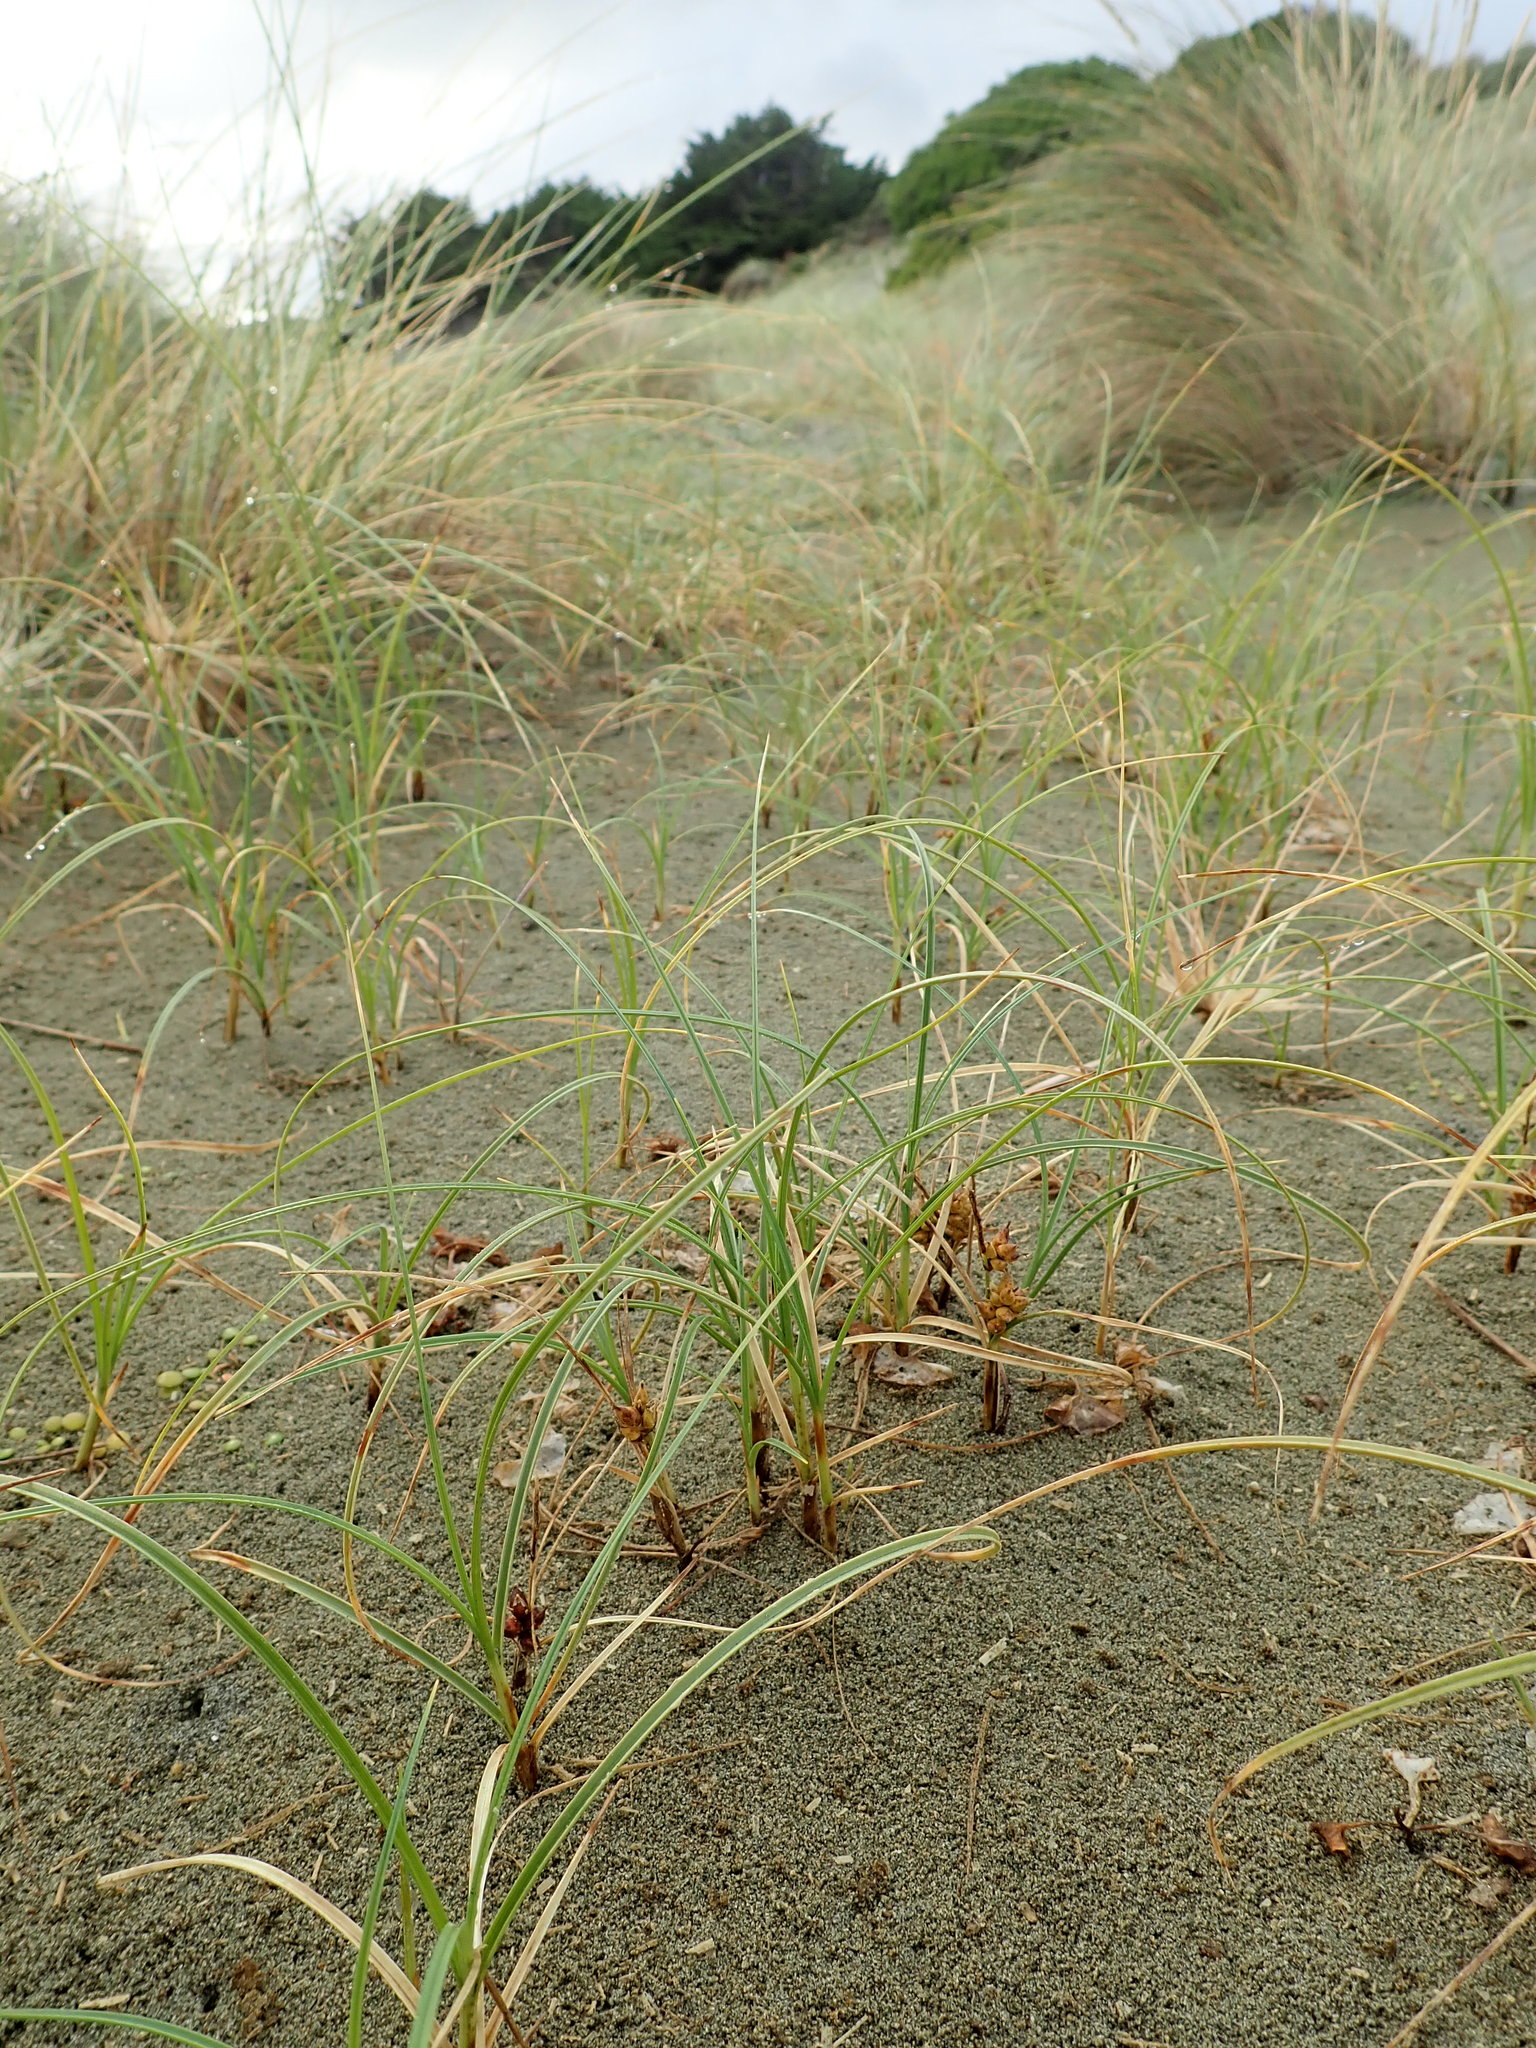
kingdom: Plantae
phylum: Tracheophyta
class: Liliopsida
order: Poales
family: Cyperaceae
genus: Carex
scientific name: Carex pumila
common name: Dwarf sedge
